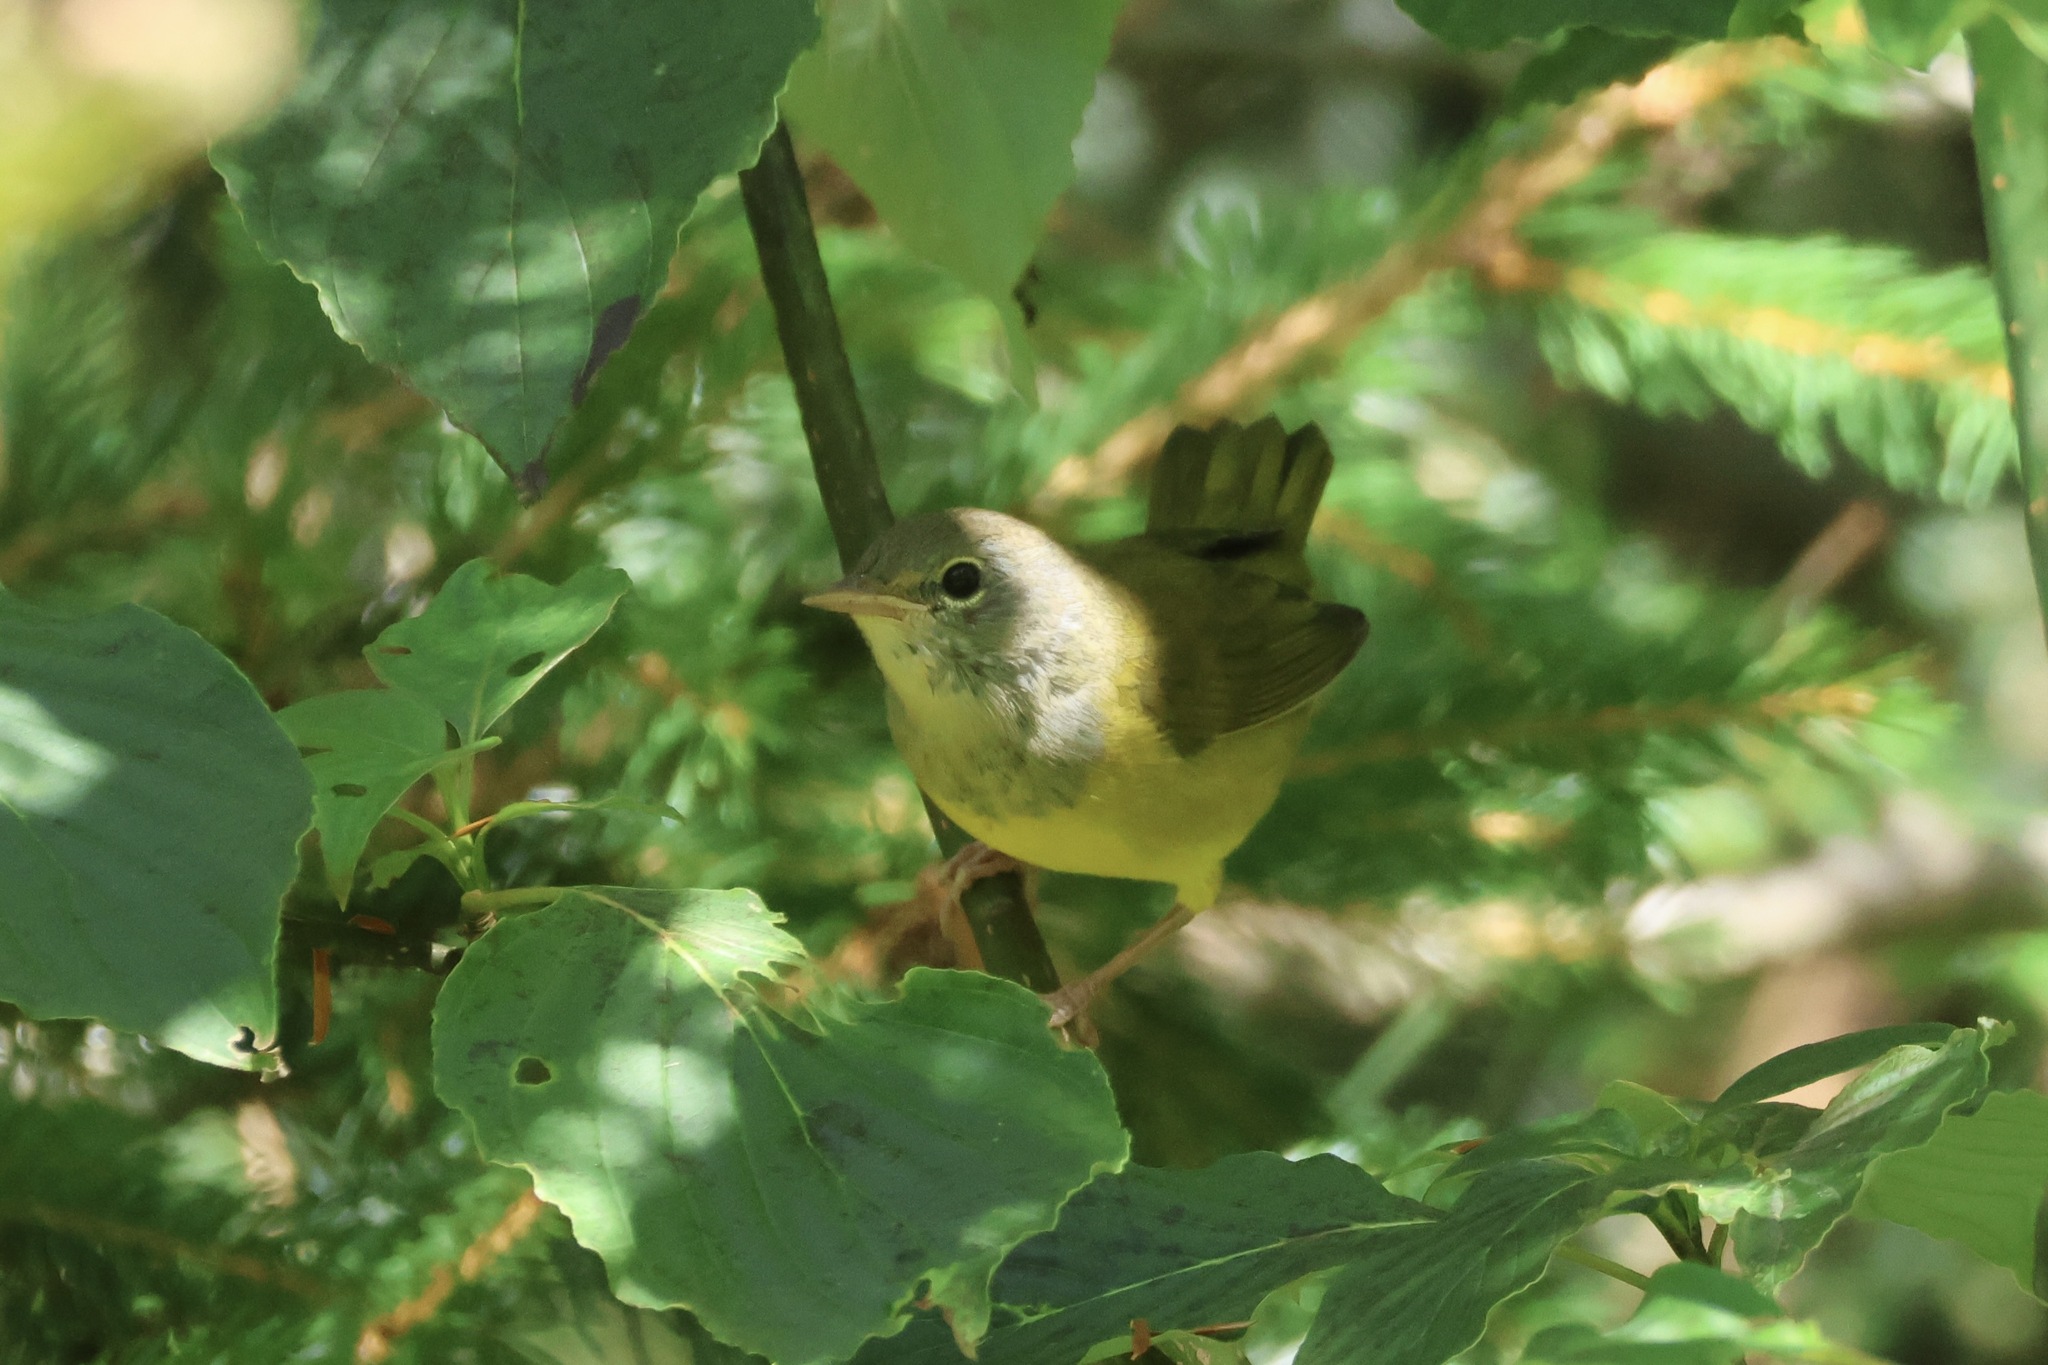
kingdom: Animalia
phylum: Chordata
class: Aves
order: Passeriformes
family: Parulidae
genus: Geothlypis
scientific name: Geothlypis philadelphia
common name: Mourning warbler
